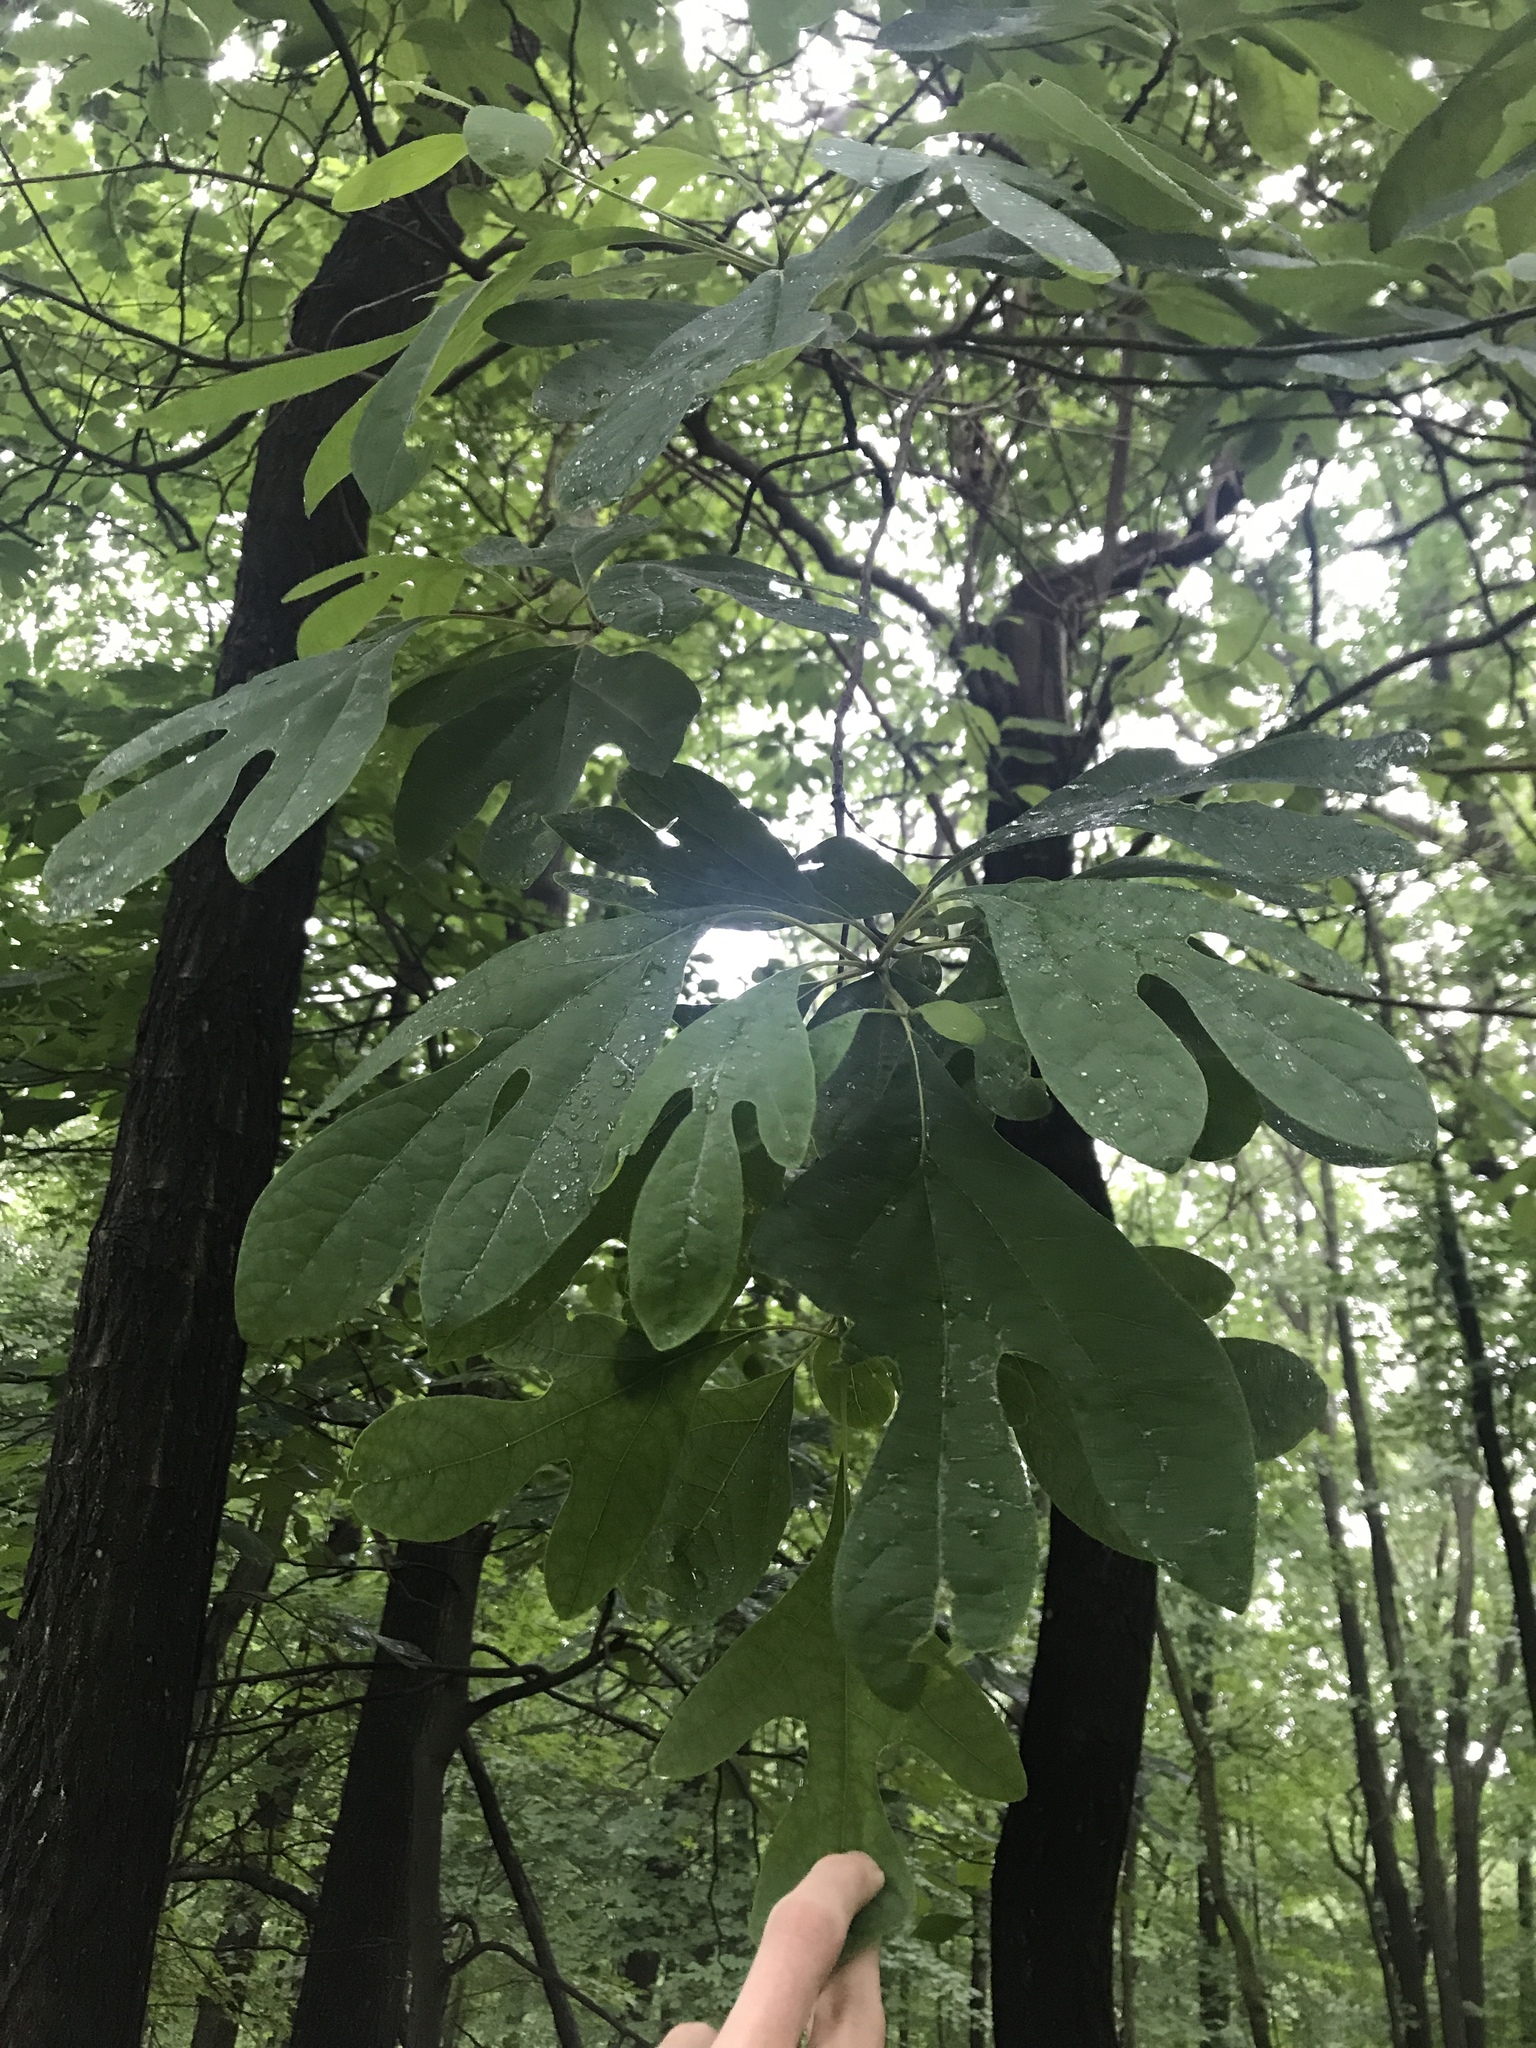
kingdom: Plantae
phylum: Tracheophyta
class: Magnoliopsida
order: Laurales
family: Lauraceae
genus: Sassafras
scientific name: Sassafras albidum
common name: Sassafras
